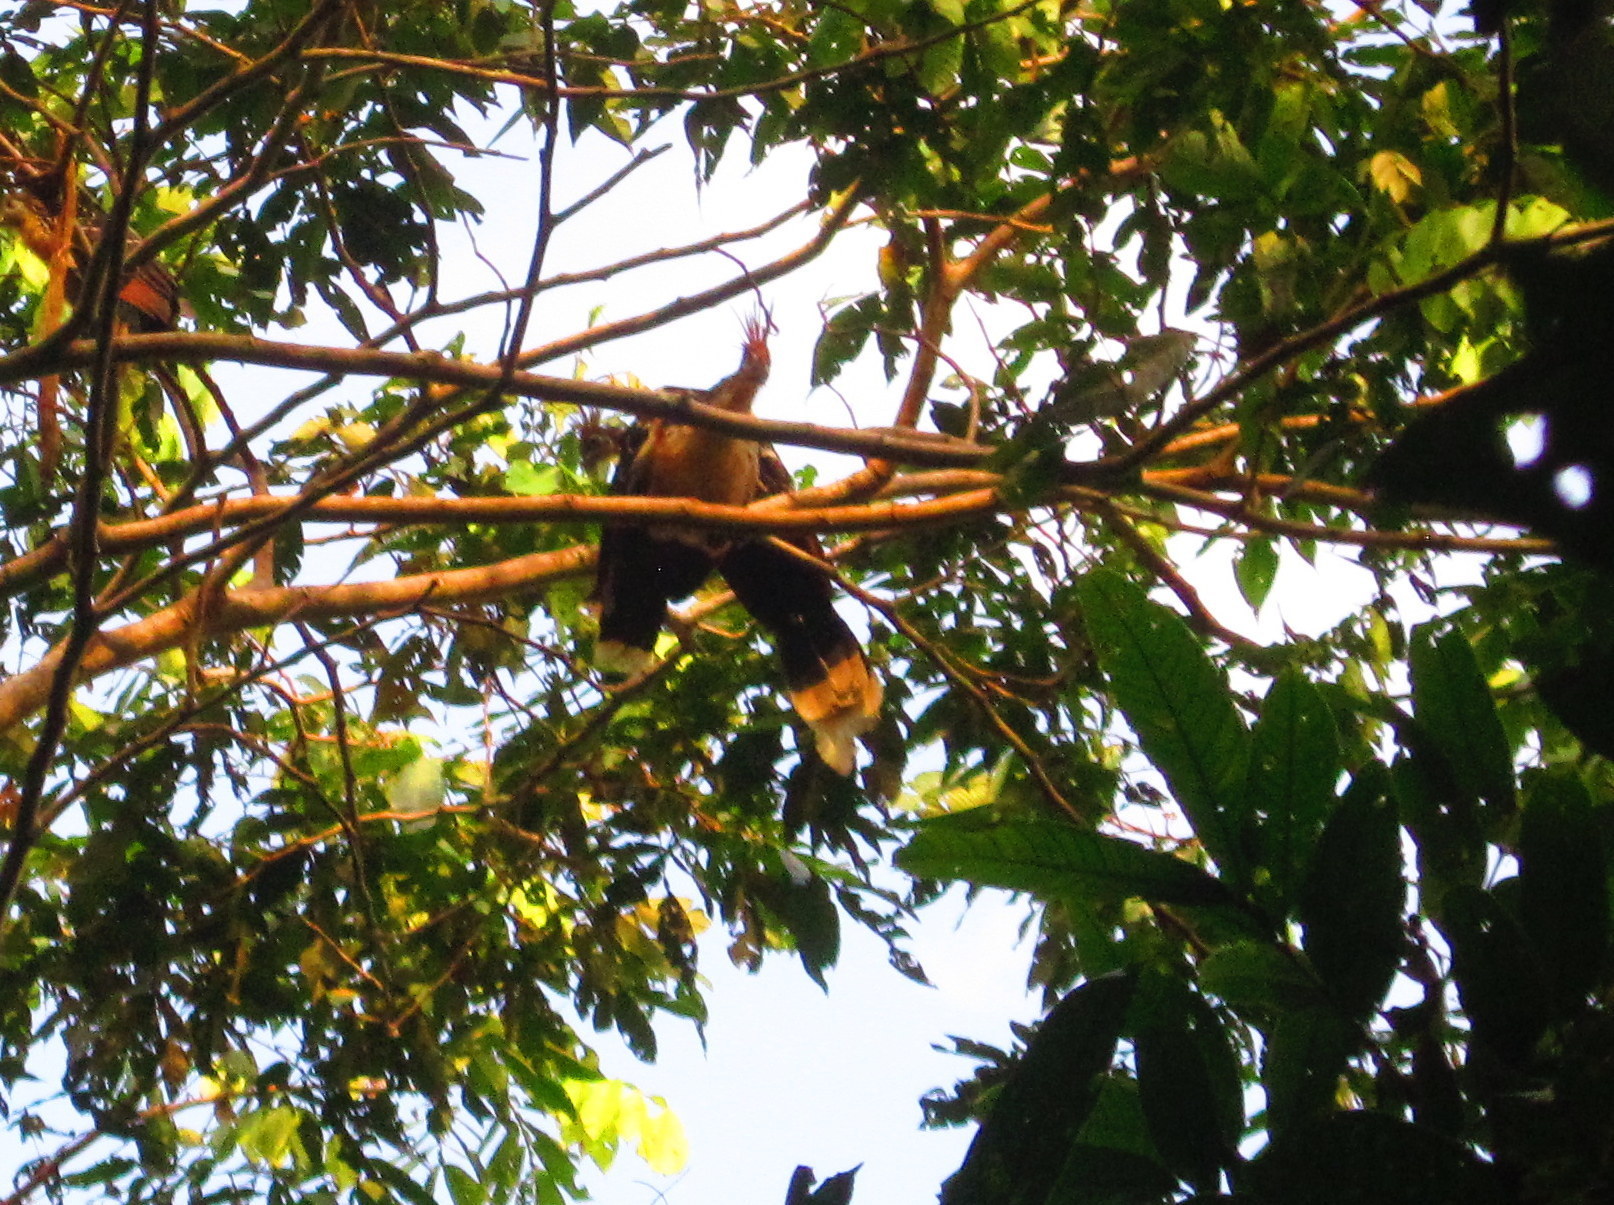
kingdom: Animalia
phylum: Chordata
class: Aves
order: Opisthocomiformes
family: Opisthocomidae
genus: Opisthocomus
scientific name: Opisthocomus hoazin
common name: Hoatzin
